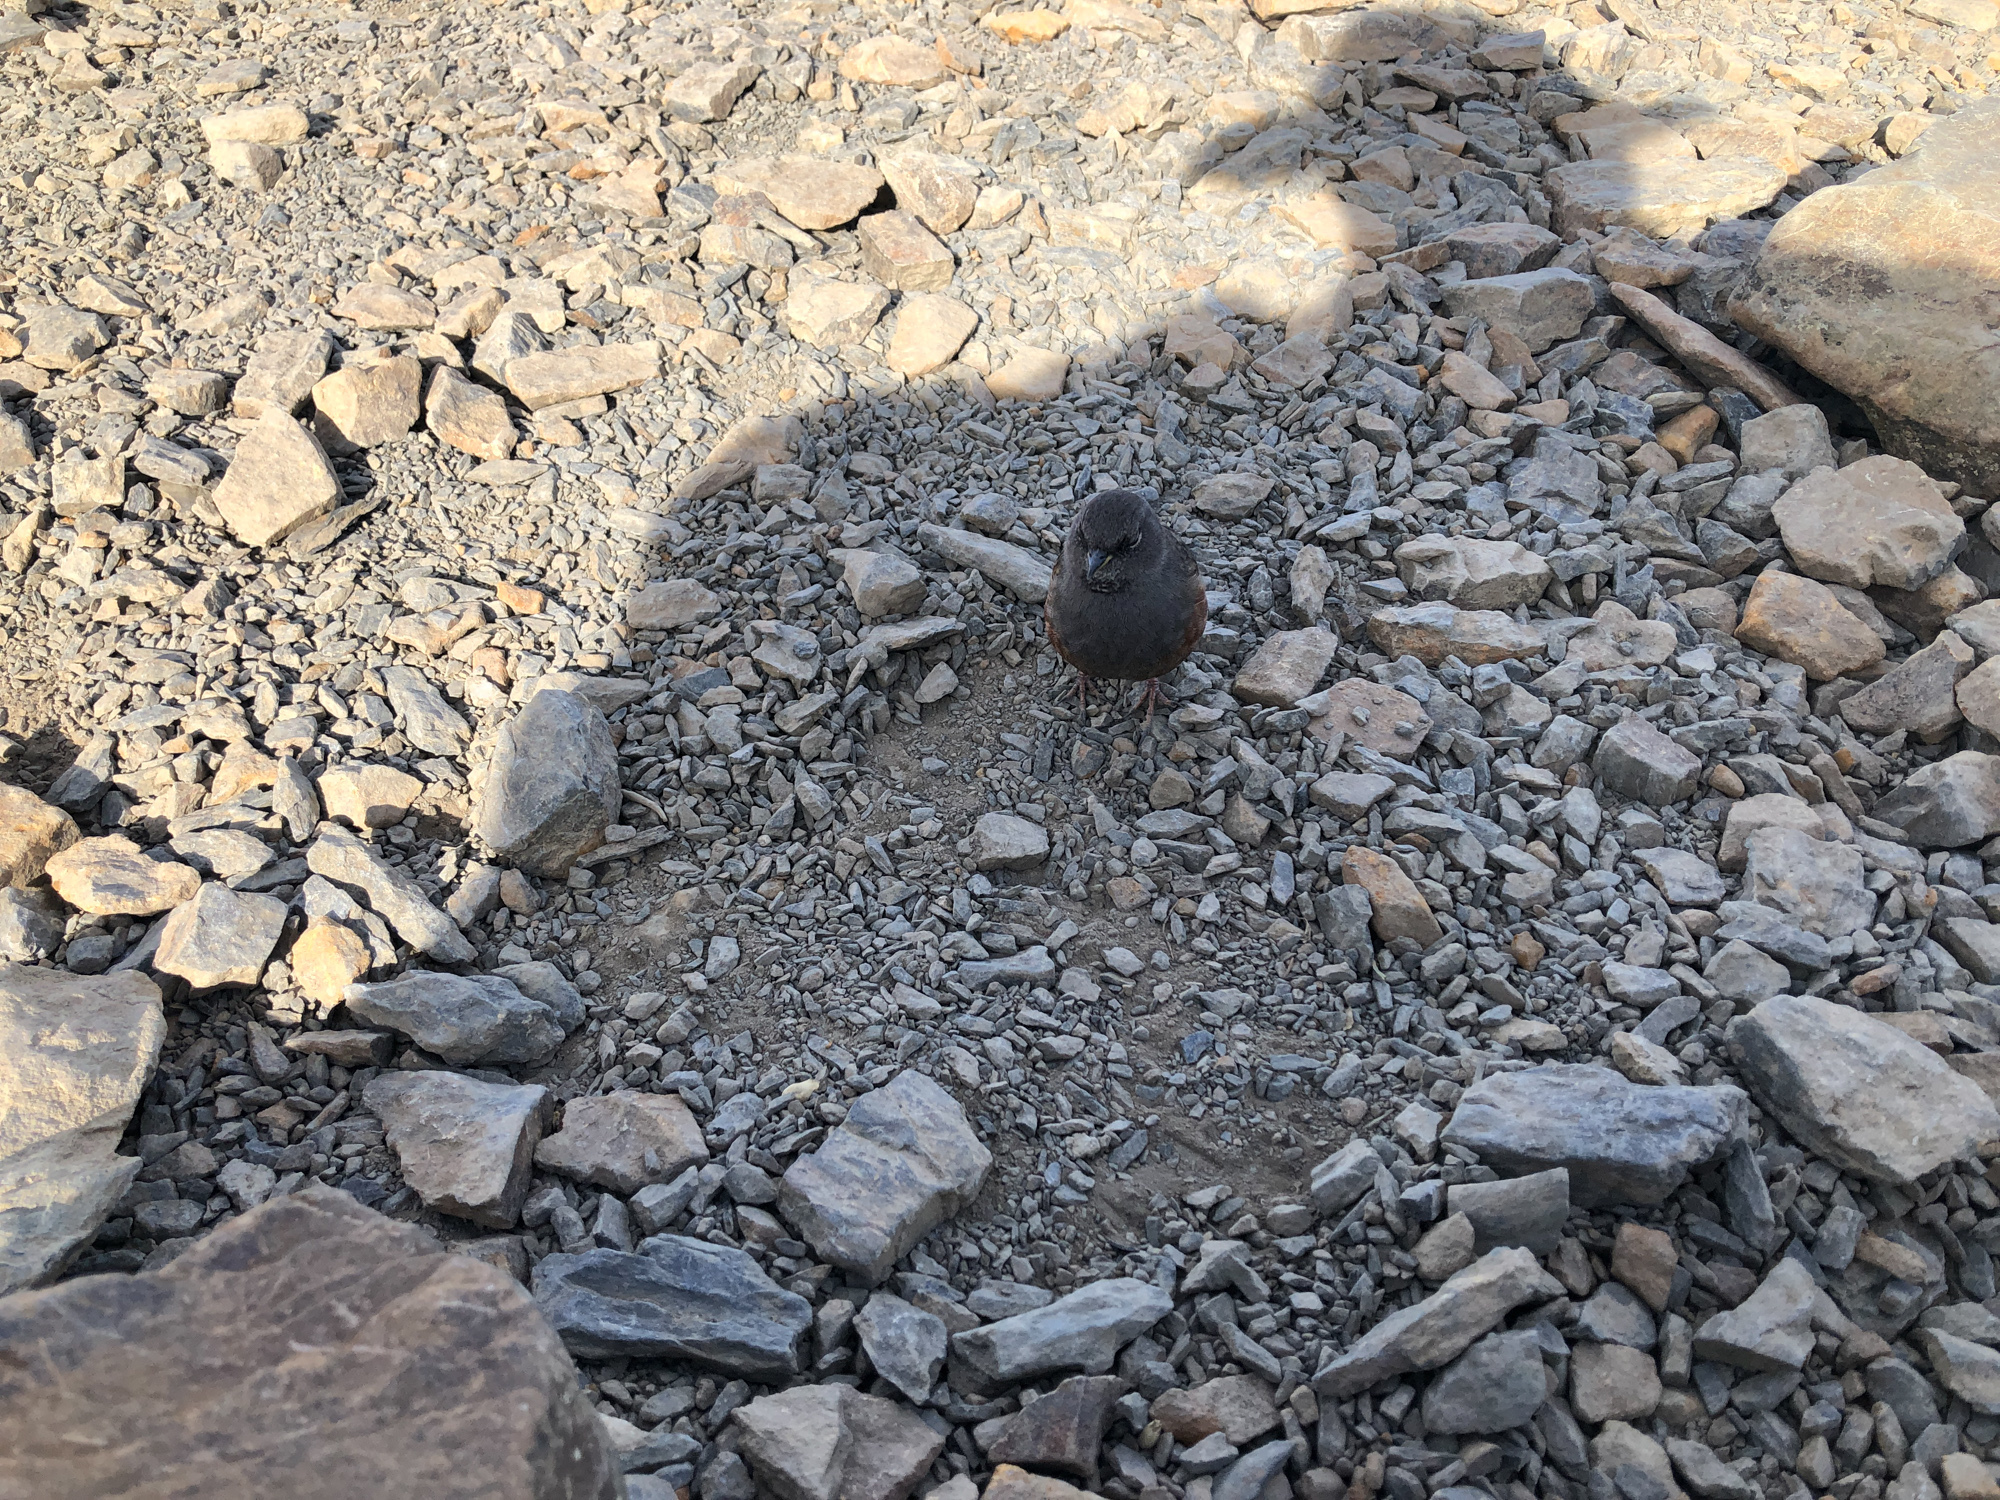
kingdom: Animalia
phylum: Chordata
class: Aves
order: Passeriformes
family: Prunellidae
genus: Prunella
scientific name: Prunella collaris
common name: Alpine accentor
